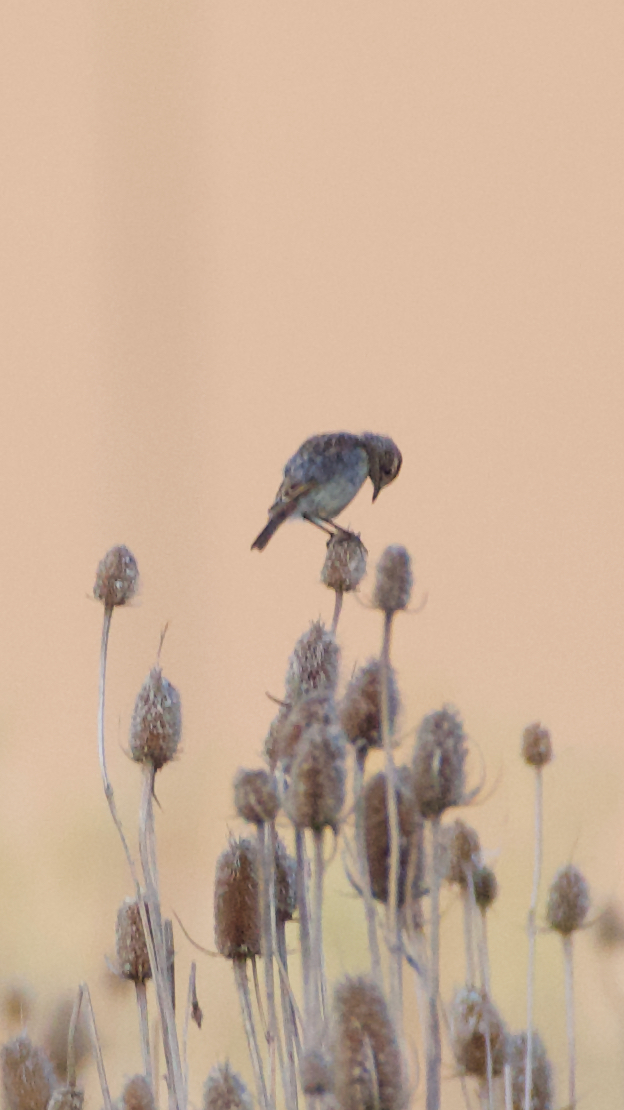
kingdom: Animalia
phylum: Chordata
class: Aves
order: Passeriformes
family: Muscicapidae
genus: Saxicola
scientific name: Saxicola rubicola
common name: European stonechat
